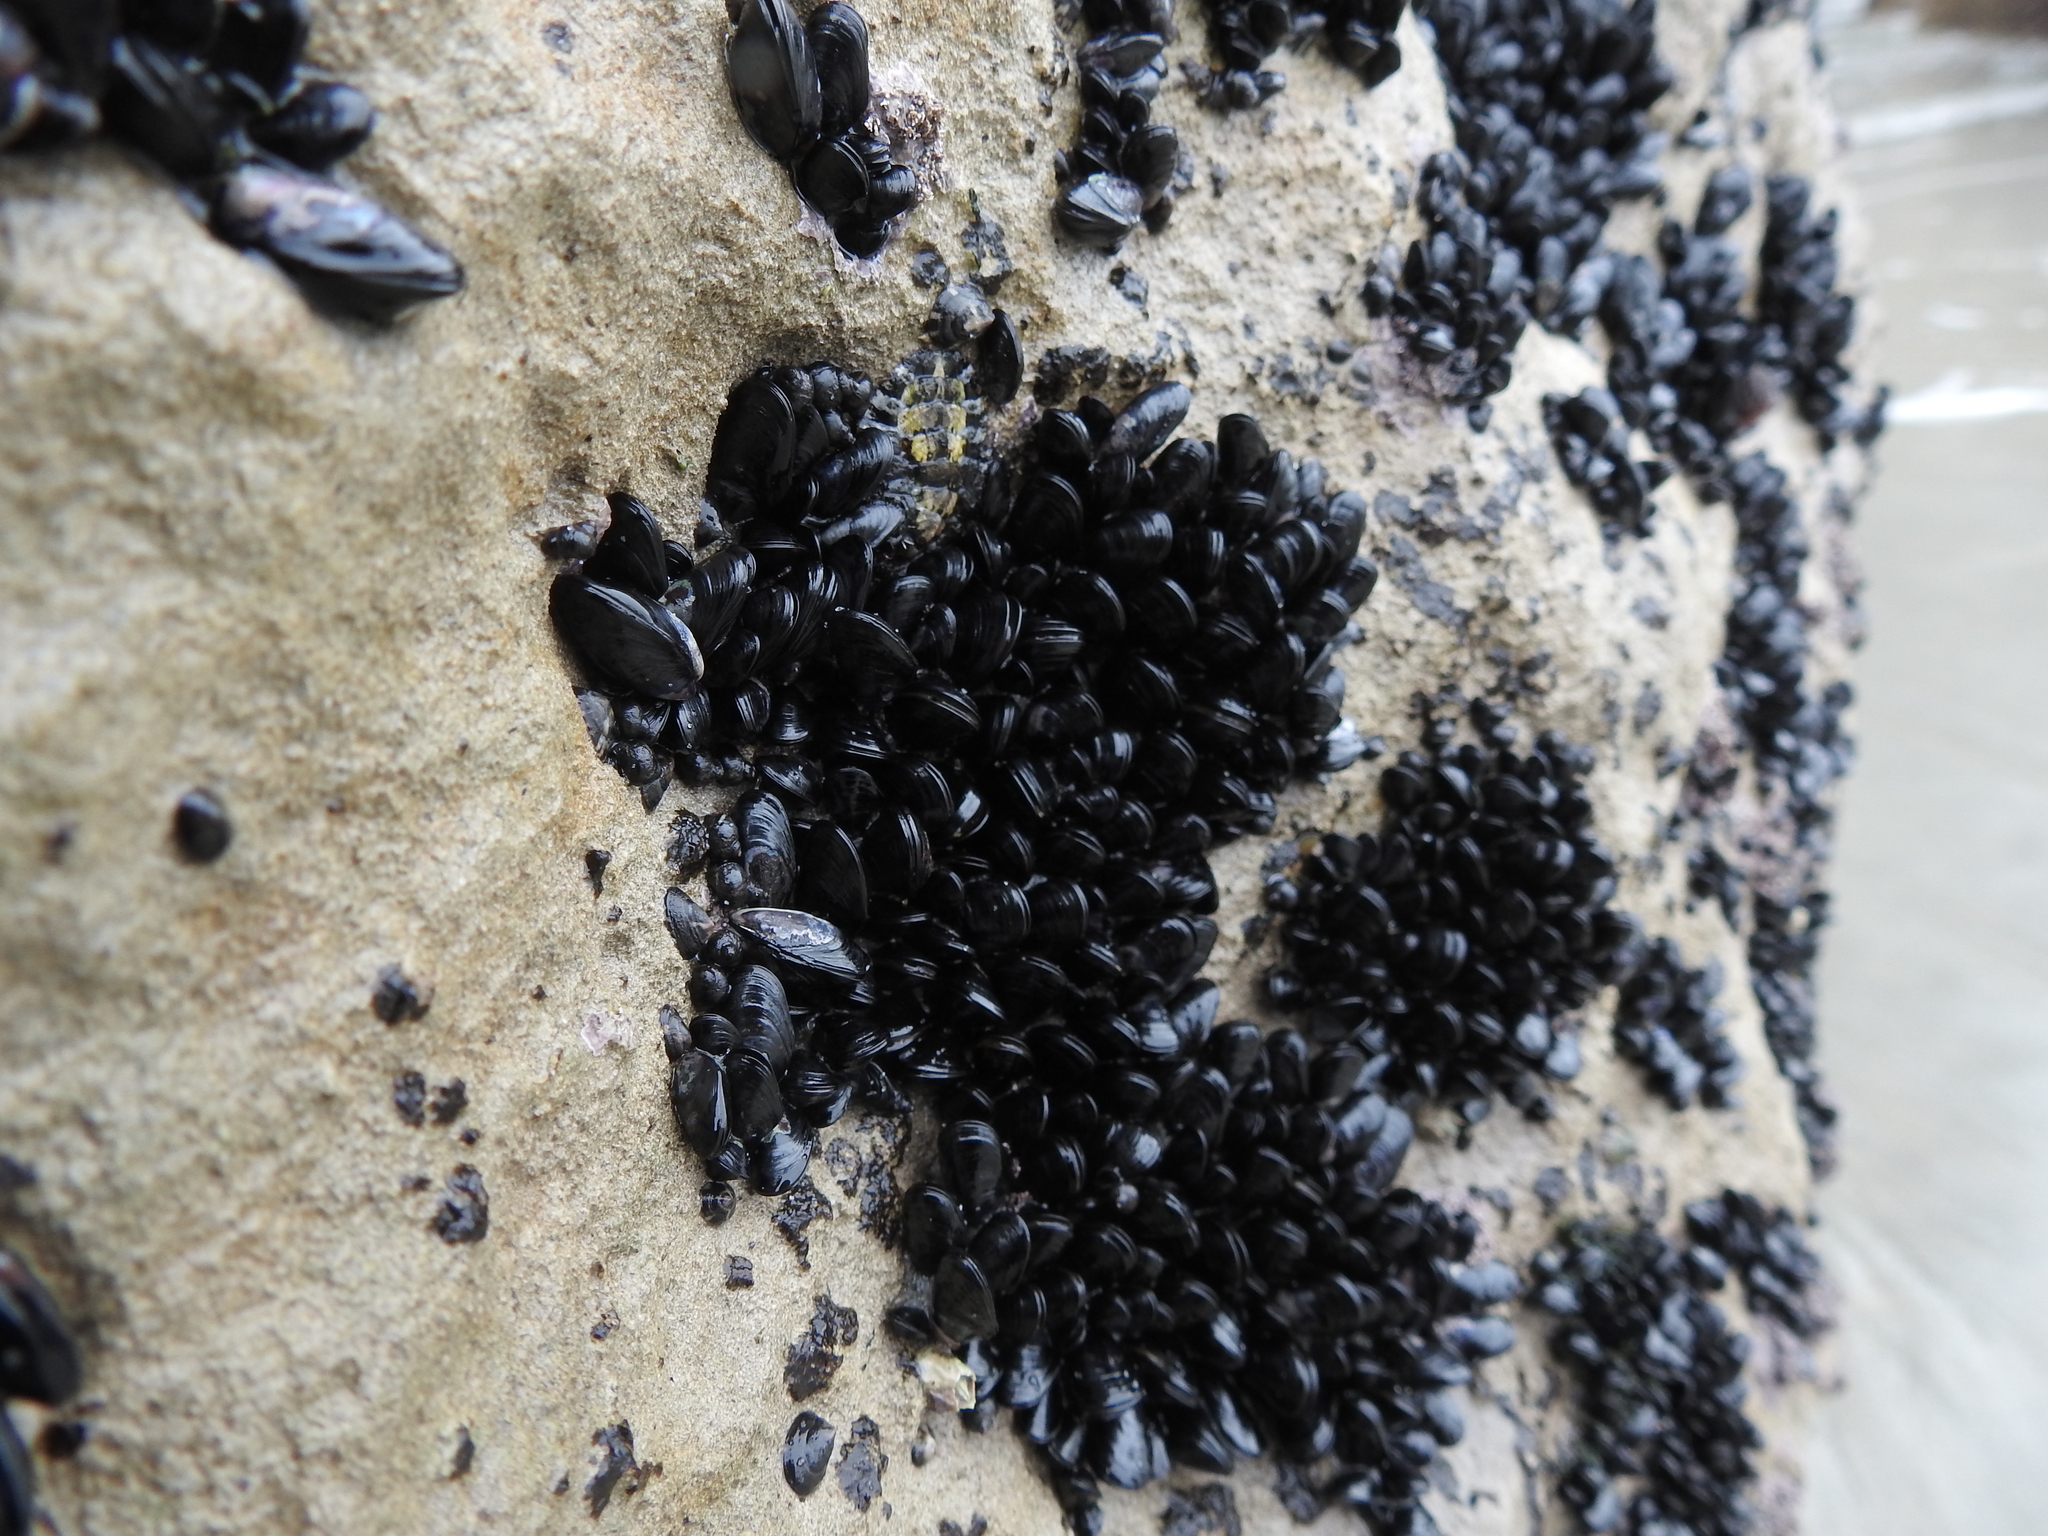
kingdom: Animalia
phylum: Mollusca
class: Bivalvia
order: Mytilida
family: Mytilidae
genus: Xenostrobus
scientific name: Xenostrobus neozelanicus
